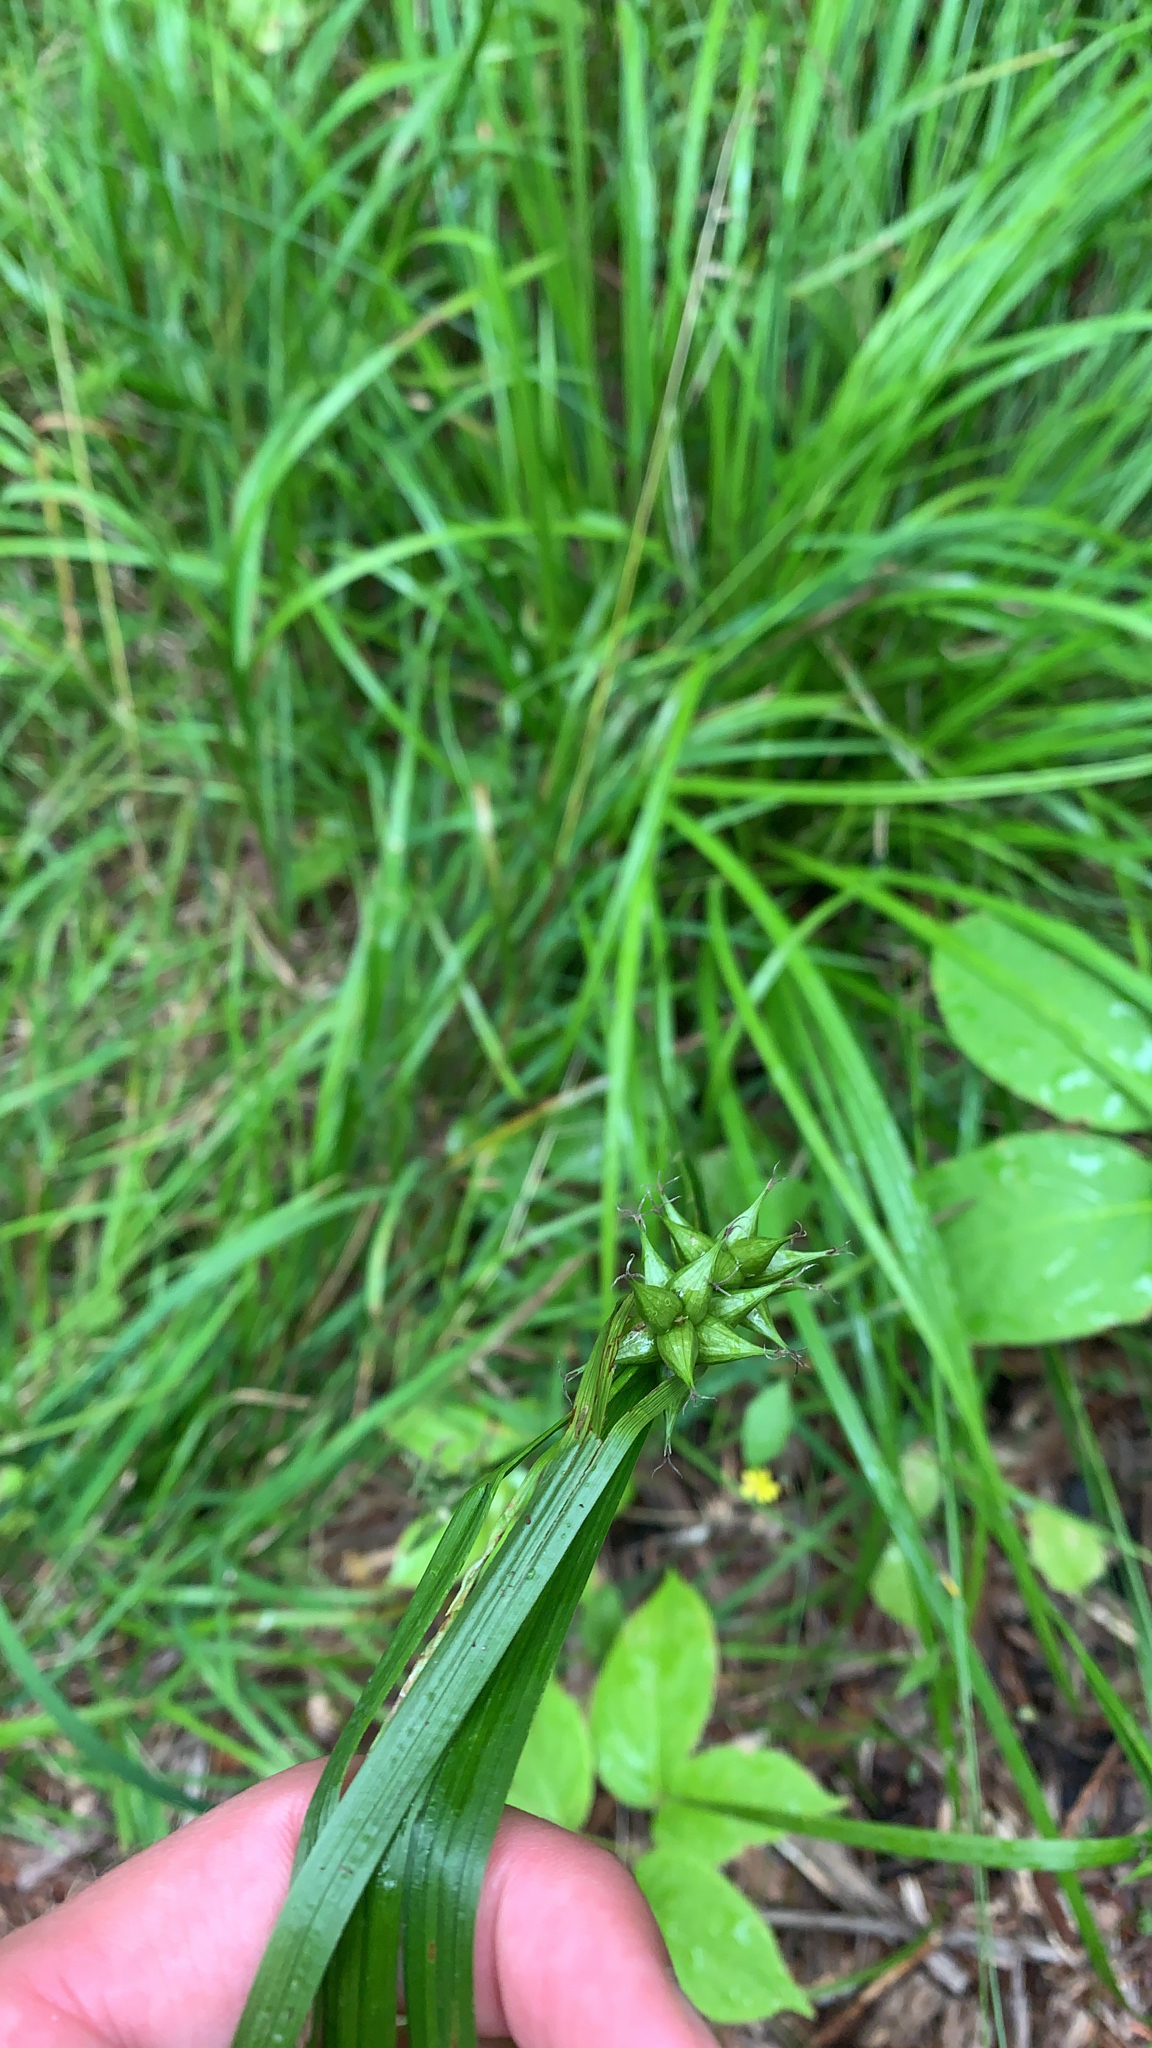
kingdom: Plantae
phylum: Tracheophyta
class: Liliopsida
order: Poales
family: Cyperaceae
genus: Carex
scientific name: Carex intumescens
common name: Greater bladder sedge
